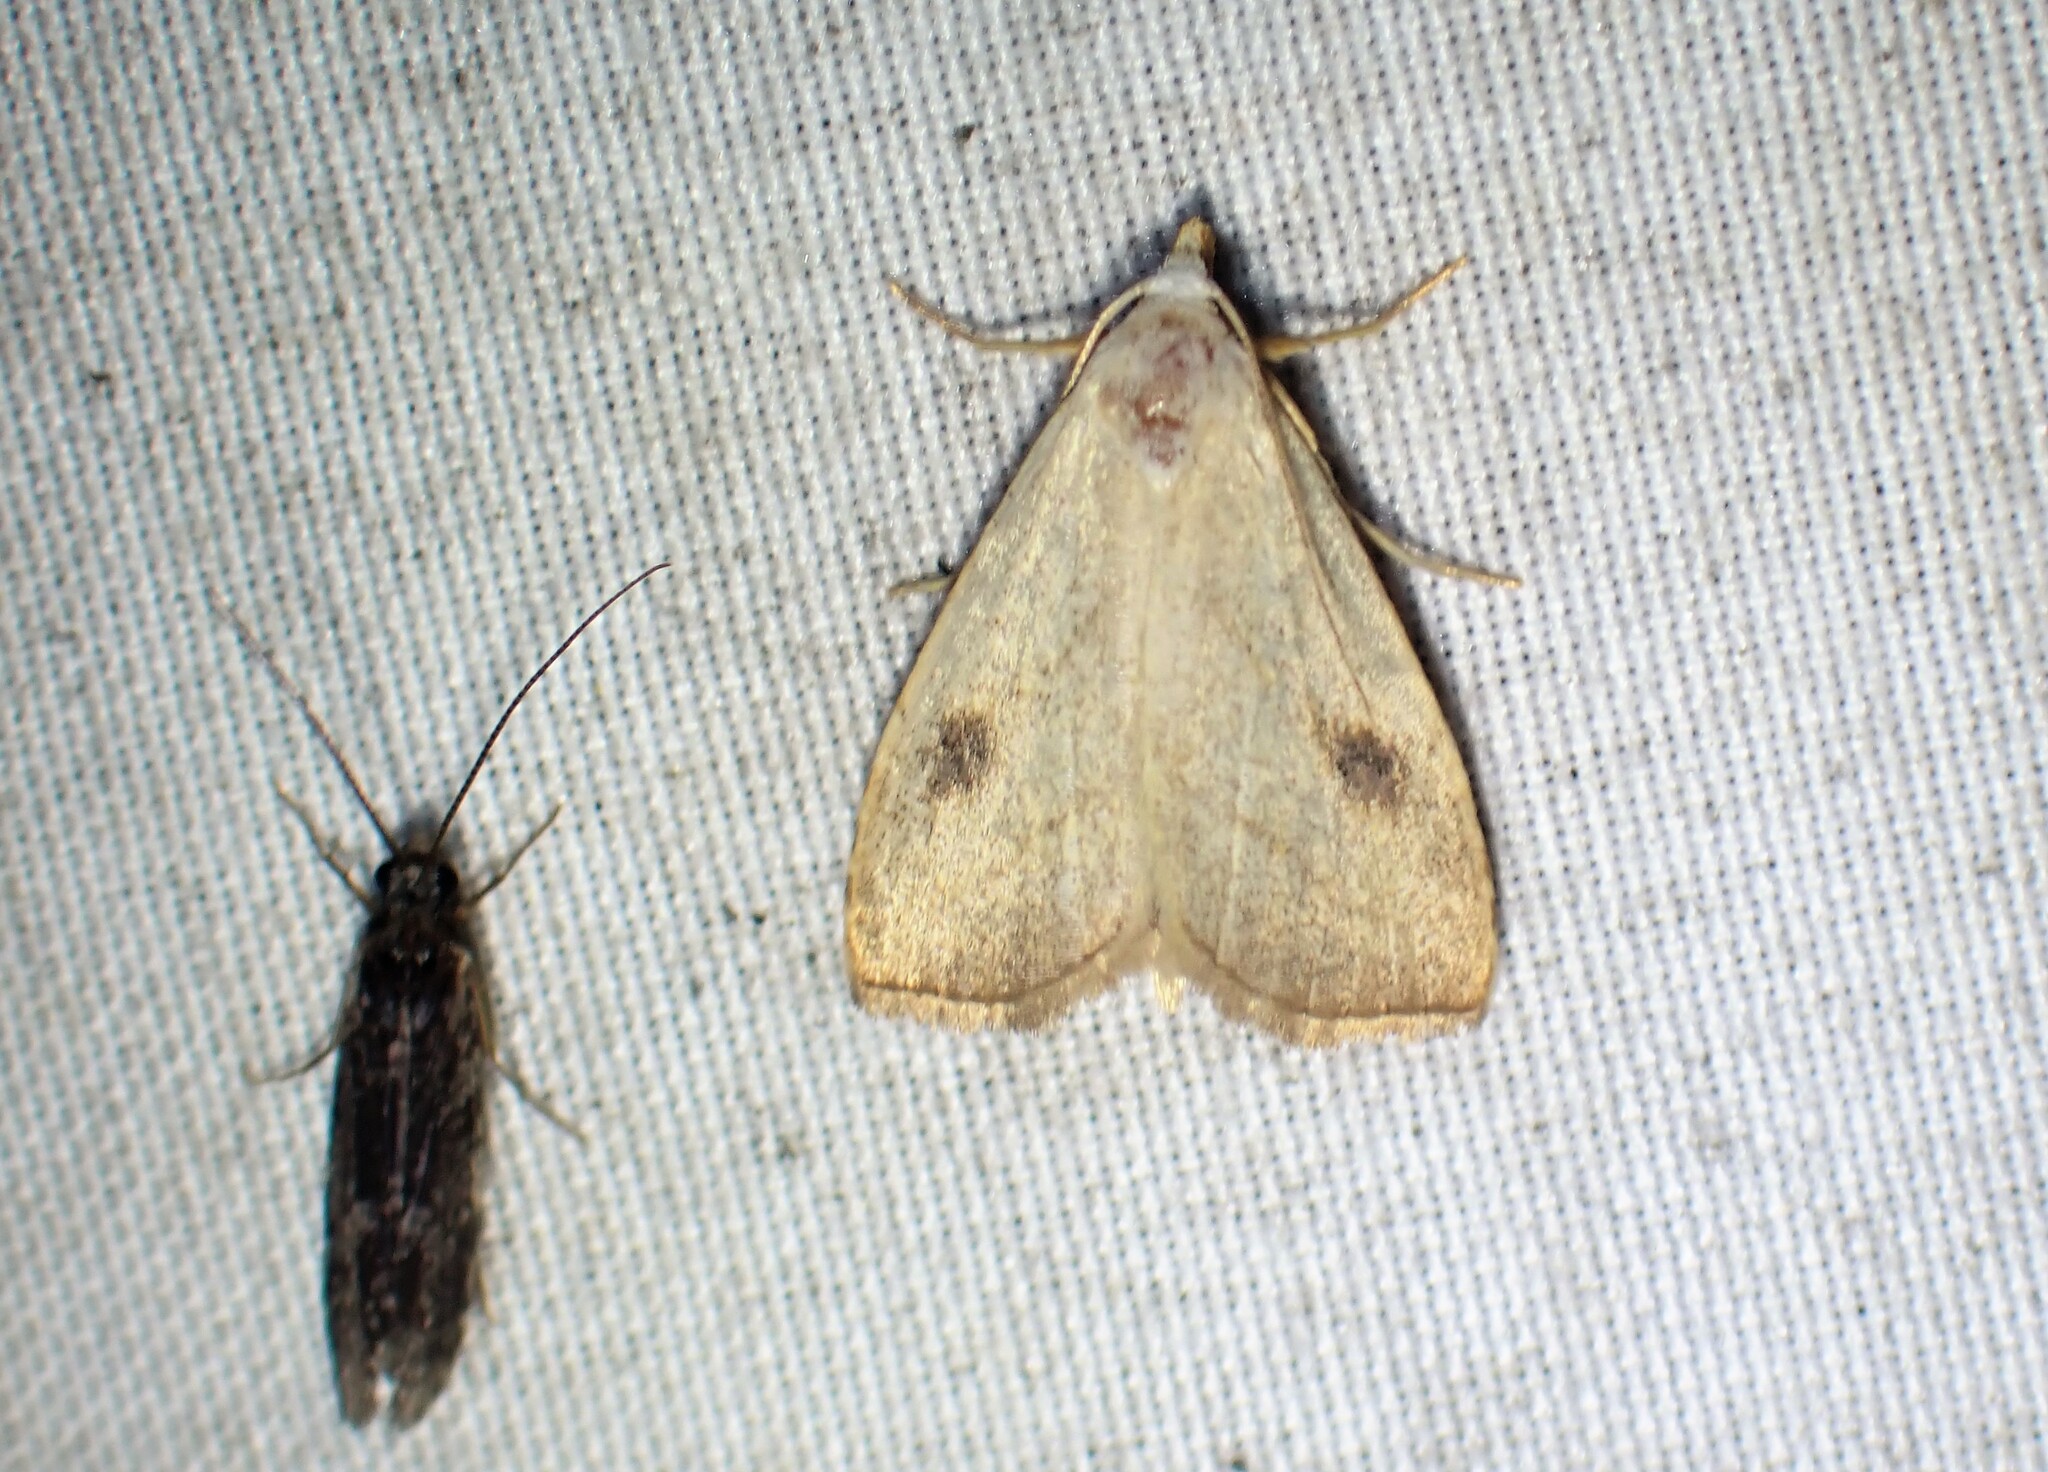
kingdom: Animalia
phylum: Arthropoda
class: Insecta
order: Lepidoptera
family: Erebidae
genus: Rivula
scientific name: Rivula propinqualis
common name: Spotted grass moth
